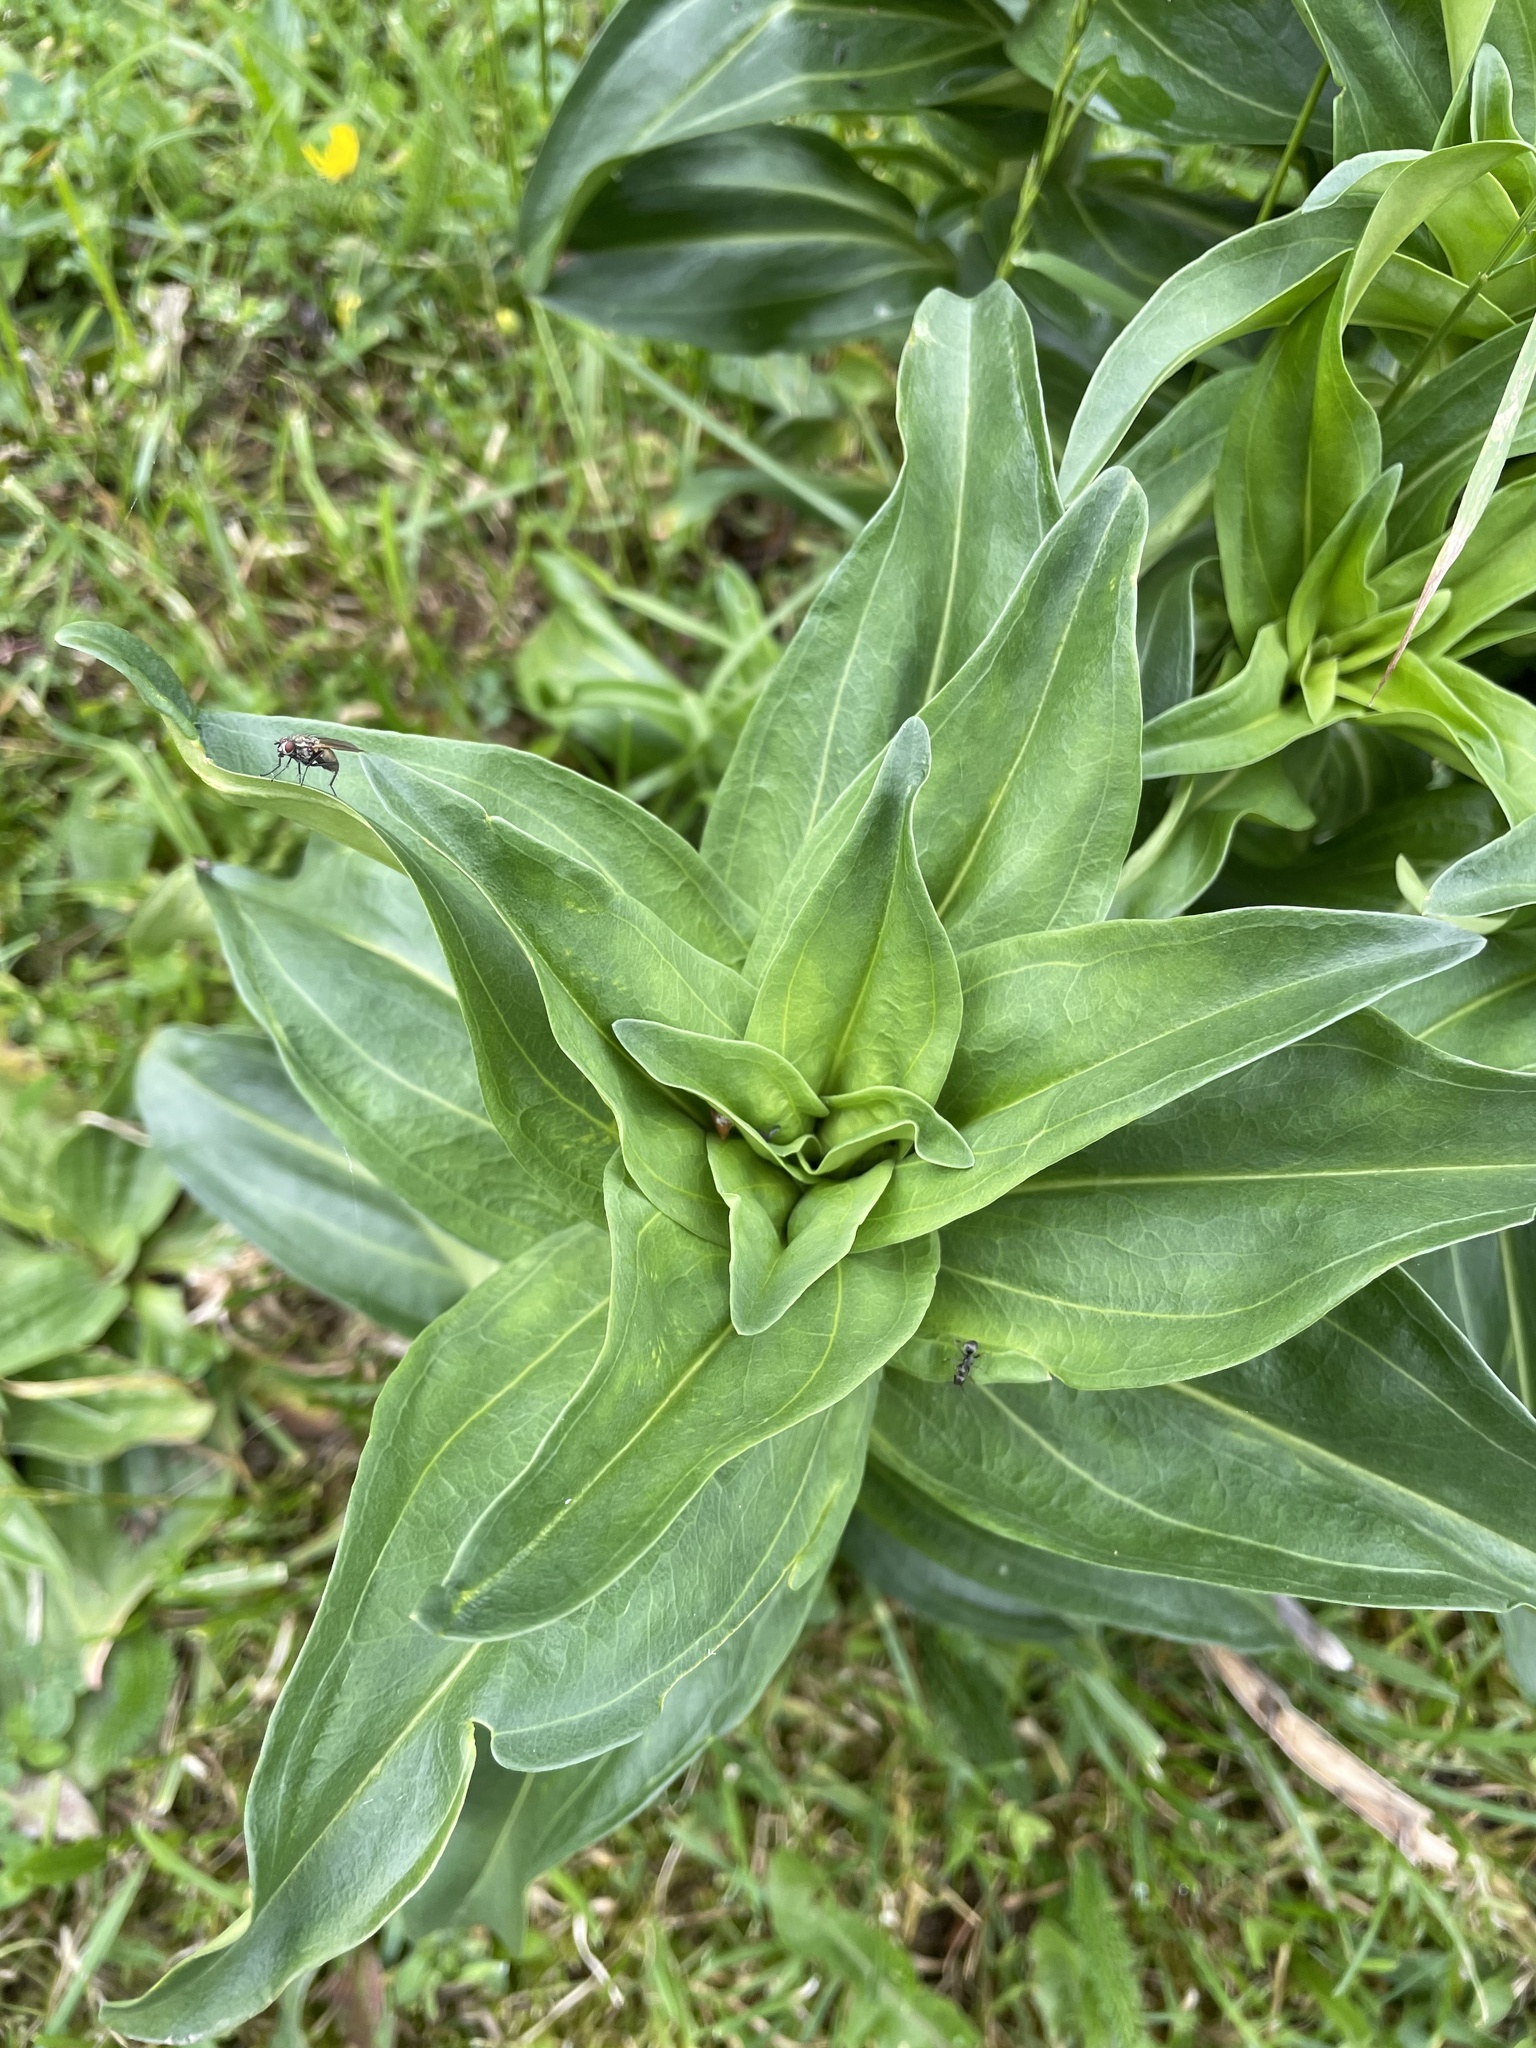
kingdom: Plantae
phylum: Tracheophyta
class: Magnoliopsida
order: Gentianales
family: Gentianaceae
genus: Gentiana
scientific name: Gentiana cruciata
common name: Cross gentian
